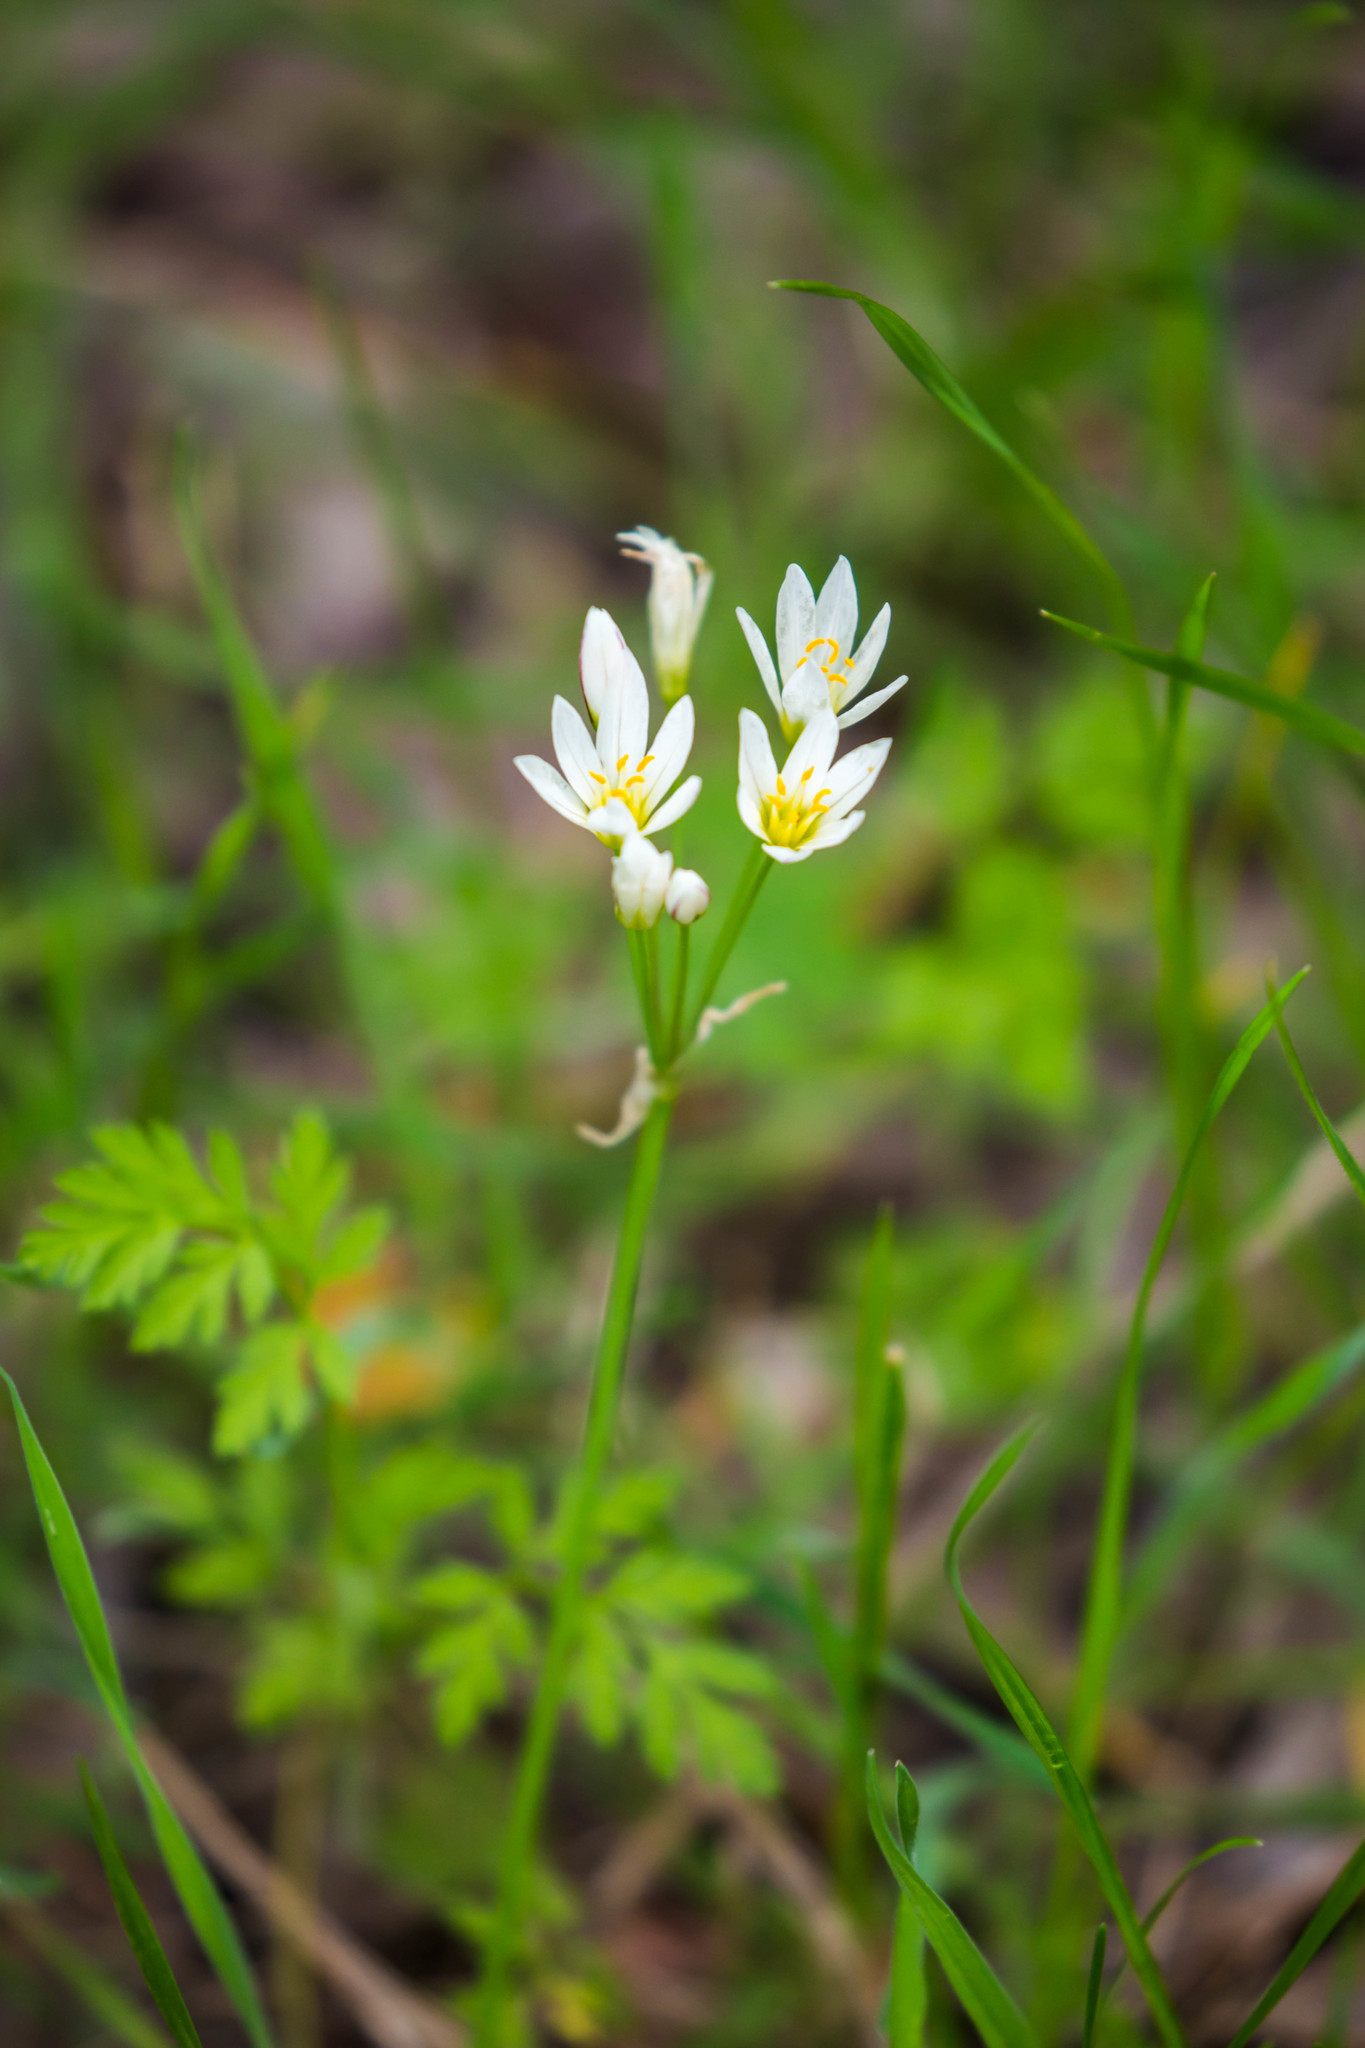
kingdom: Plantae
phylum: Tracheophyta
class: Liliopsida
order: Asparagales
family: Amaryllidaceae
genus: Nothoscordum
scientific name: Nothoscordum bivalve
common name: Crow-poison
